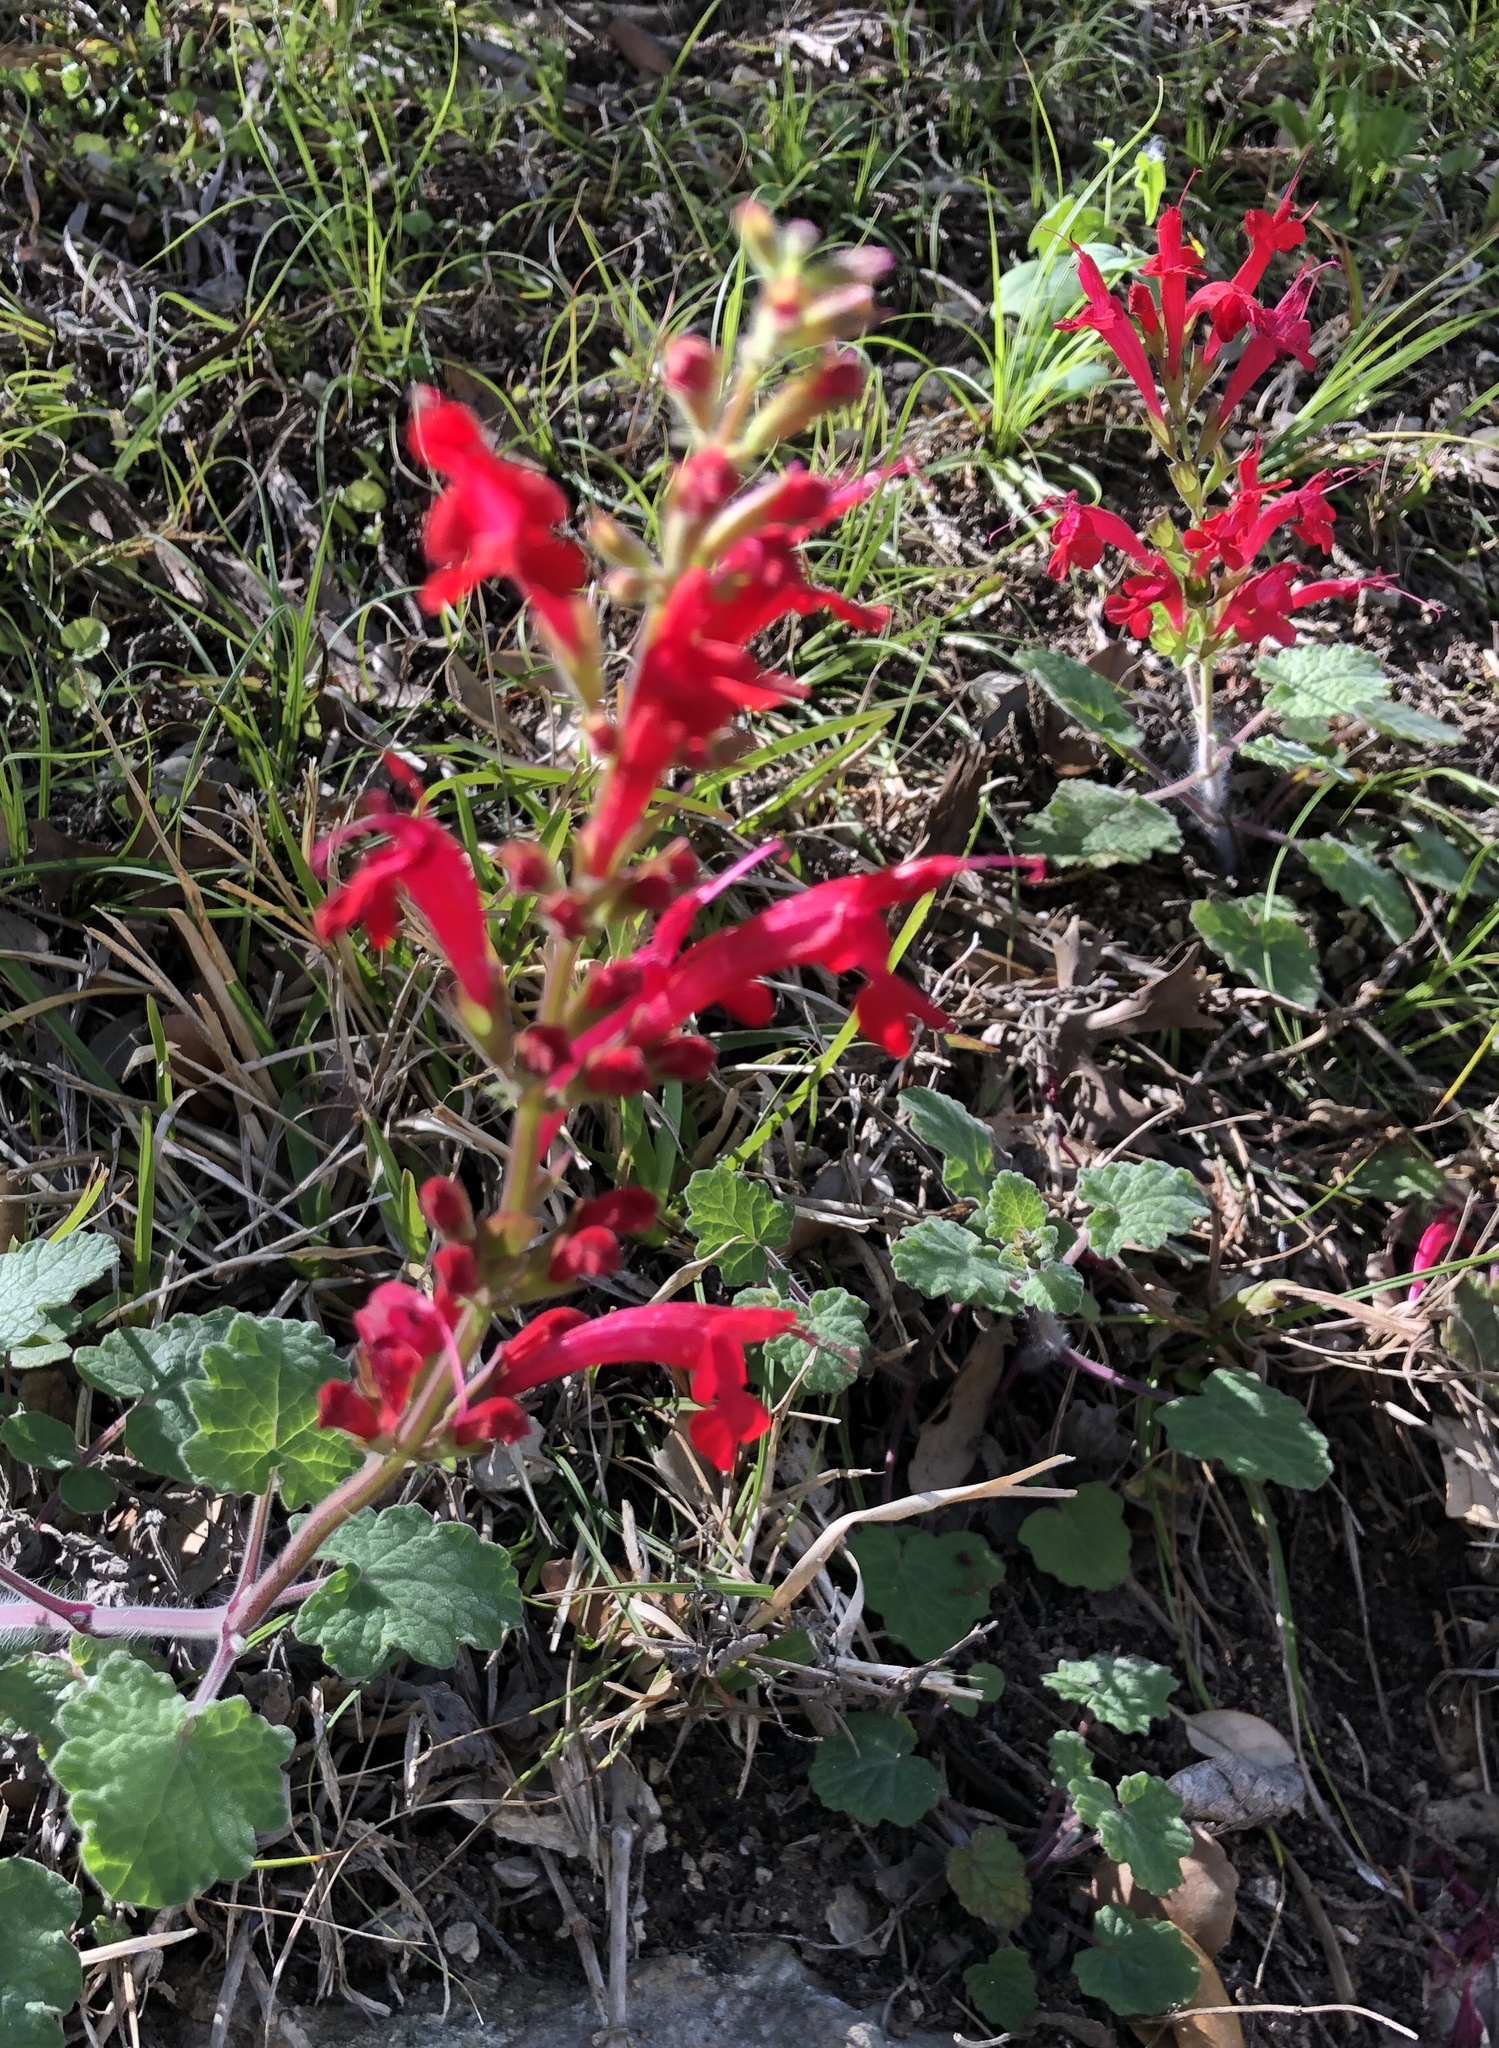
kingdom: Plantae
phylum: Tracheophyta
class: Magnoliopsida
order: Lamiales
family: Lamiaceae
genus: Salvia
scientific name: Salvia roemeriana
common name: Cedar sage
